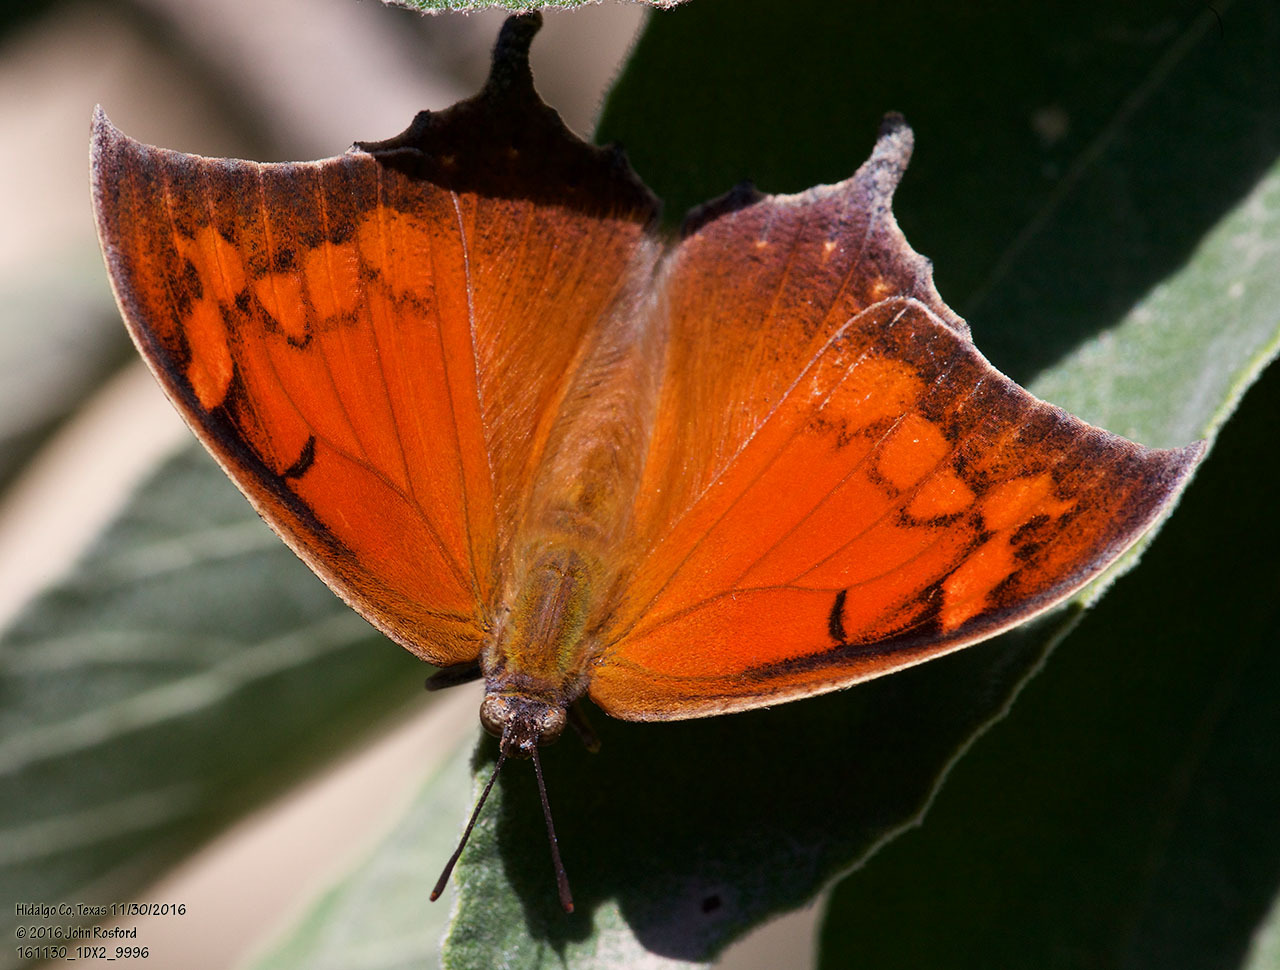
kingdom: Animalia
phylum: Arthropoda
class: Insecta
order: Lepidoptera
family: Nymphalidae
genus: Anaea
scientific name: Anaea aidea
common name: Tropical leafwing
